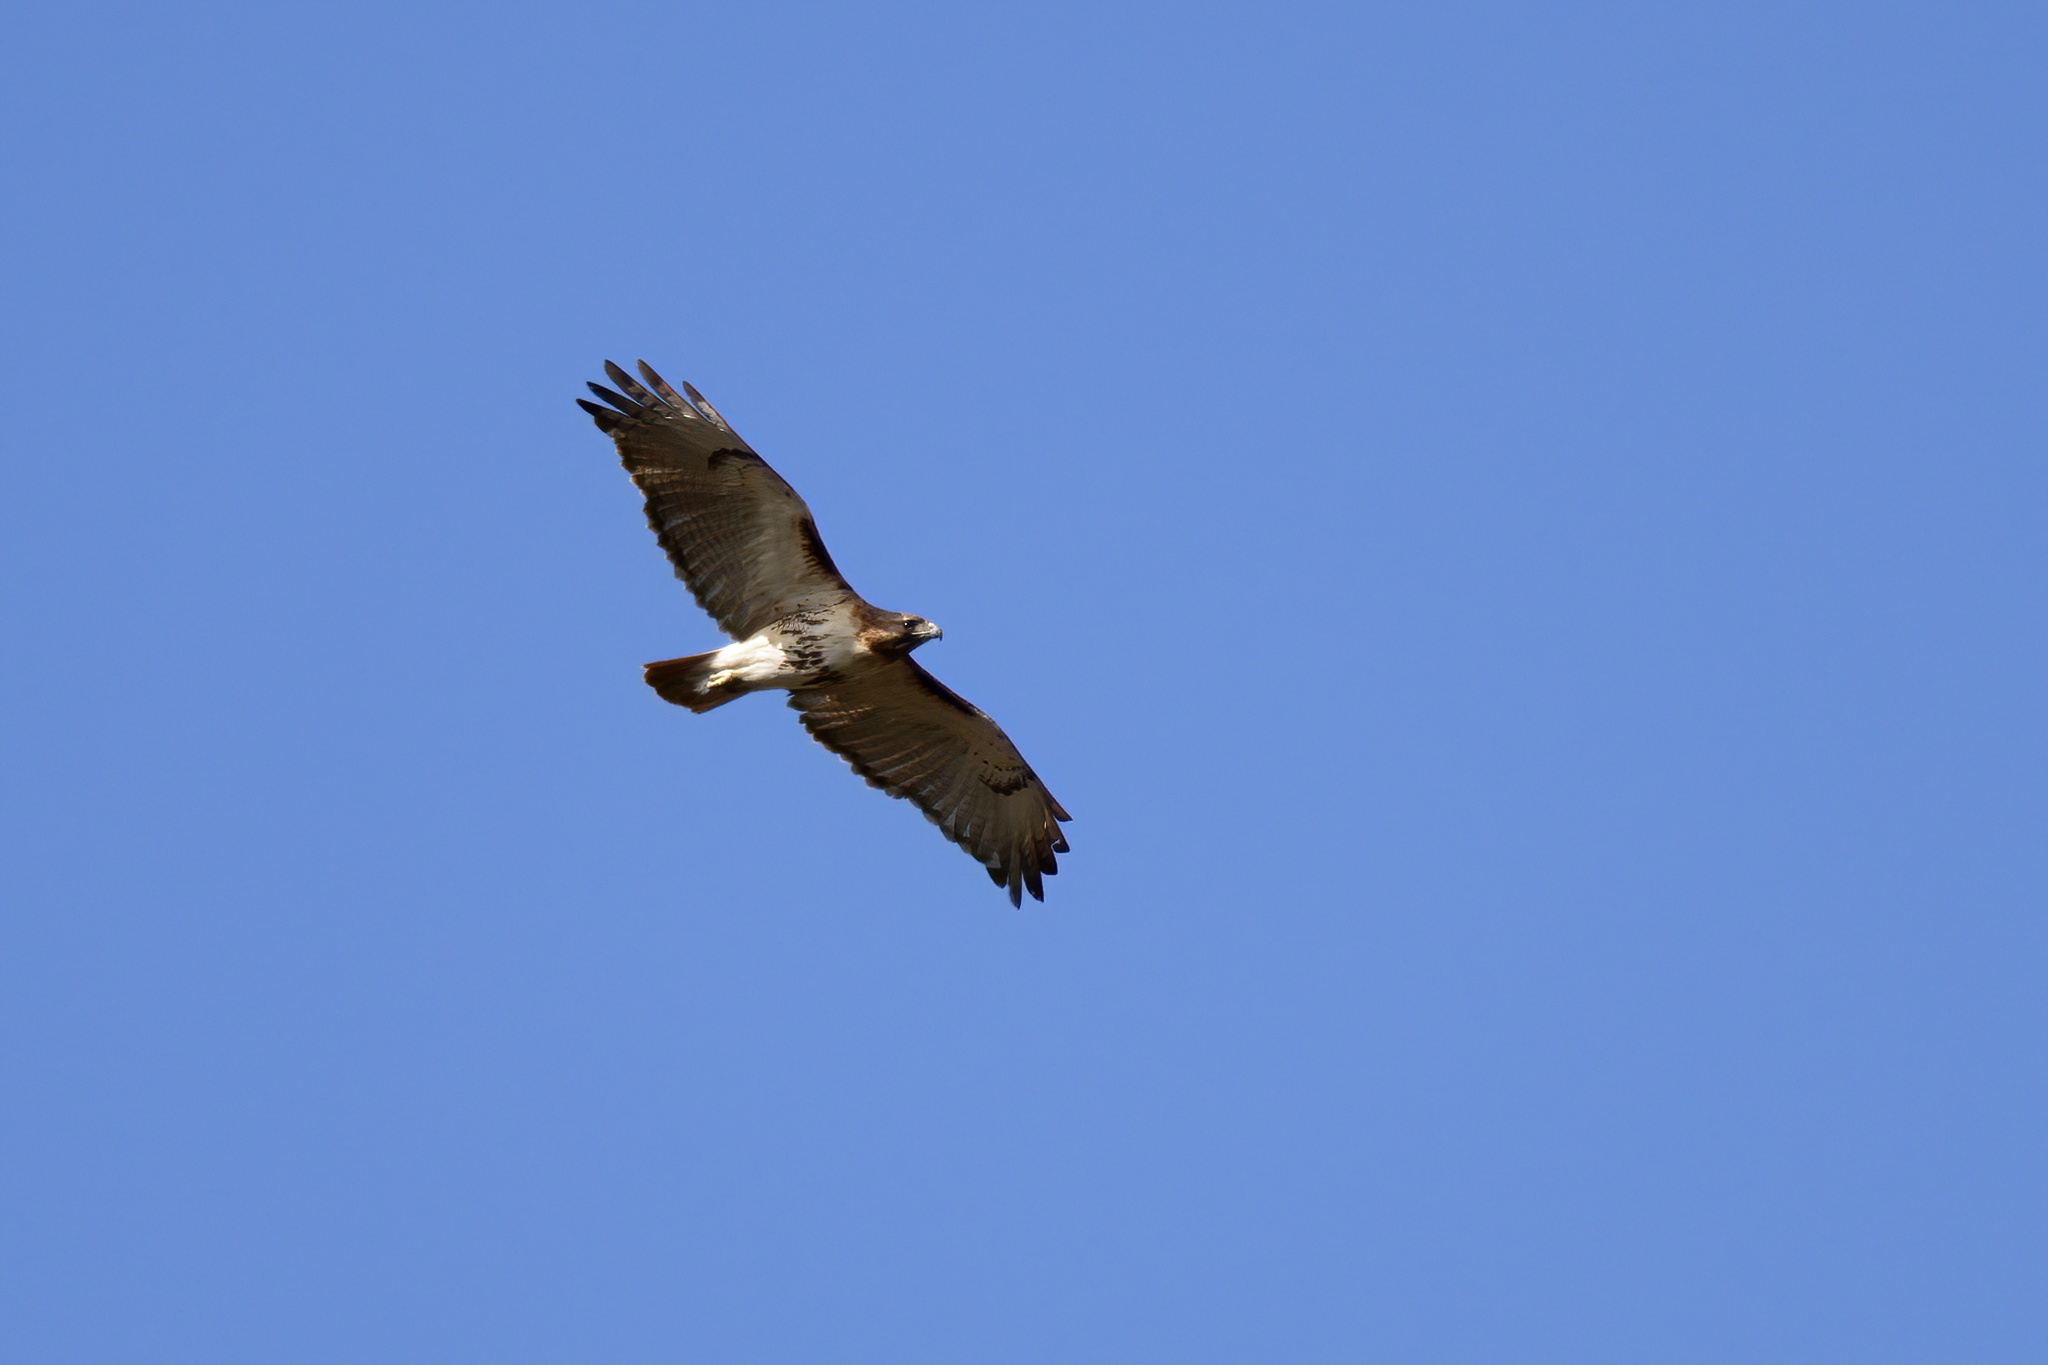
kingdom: Animalia
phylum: Chordata
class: Aves
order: Accipitriformes
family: Accipitridae
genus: Buteo
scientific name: Buteo jamaicensis
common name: Red-tailed hawk
